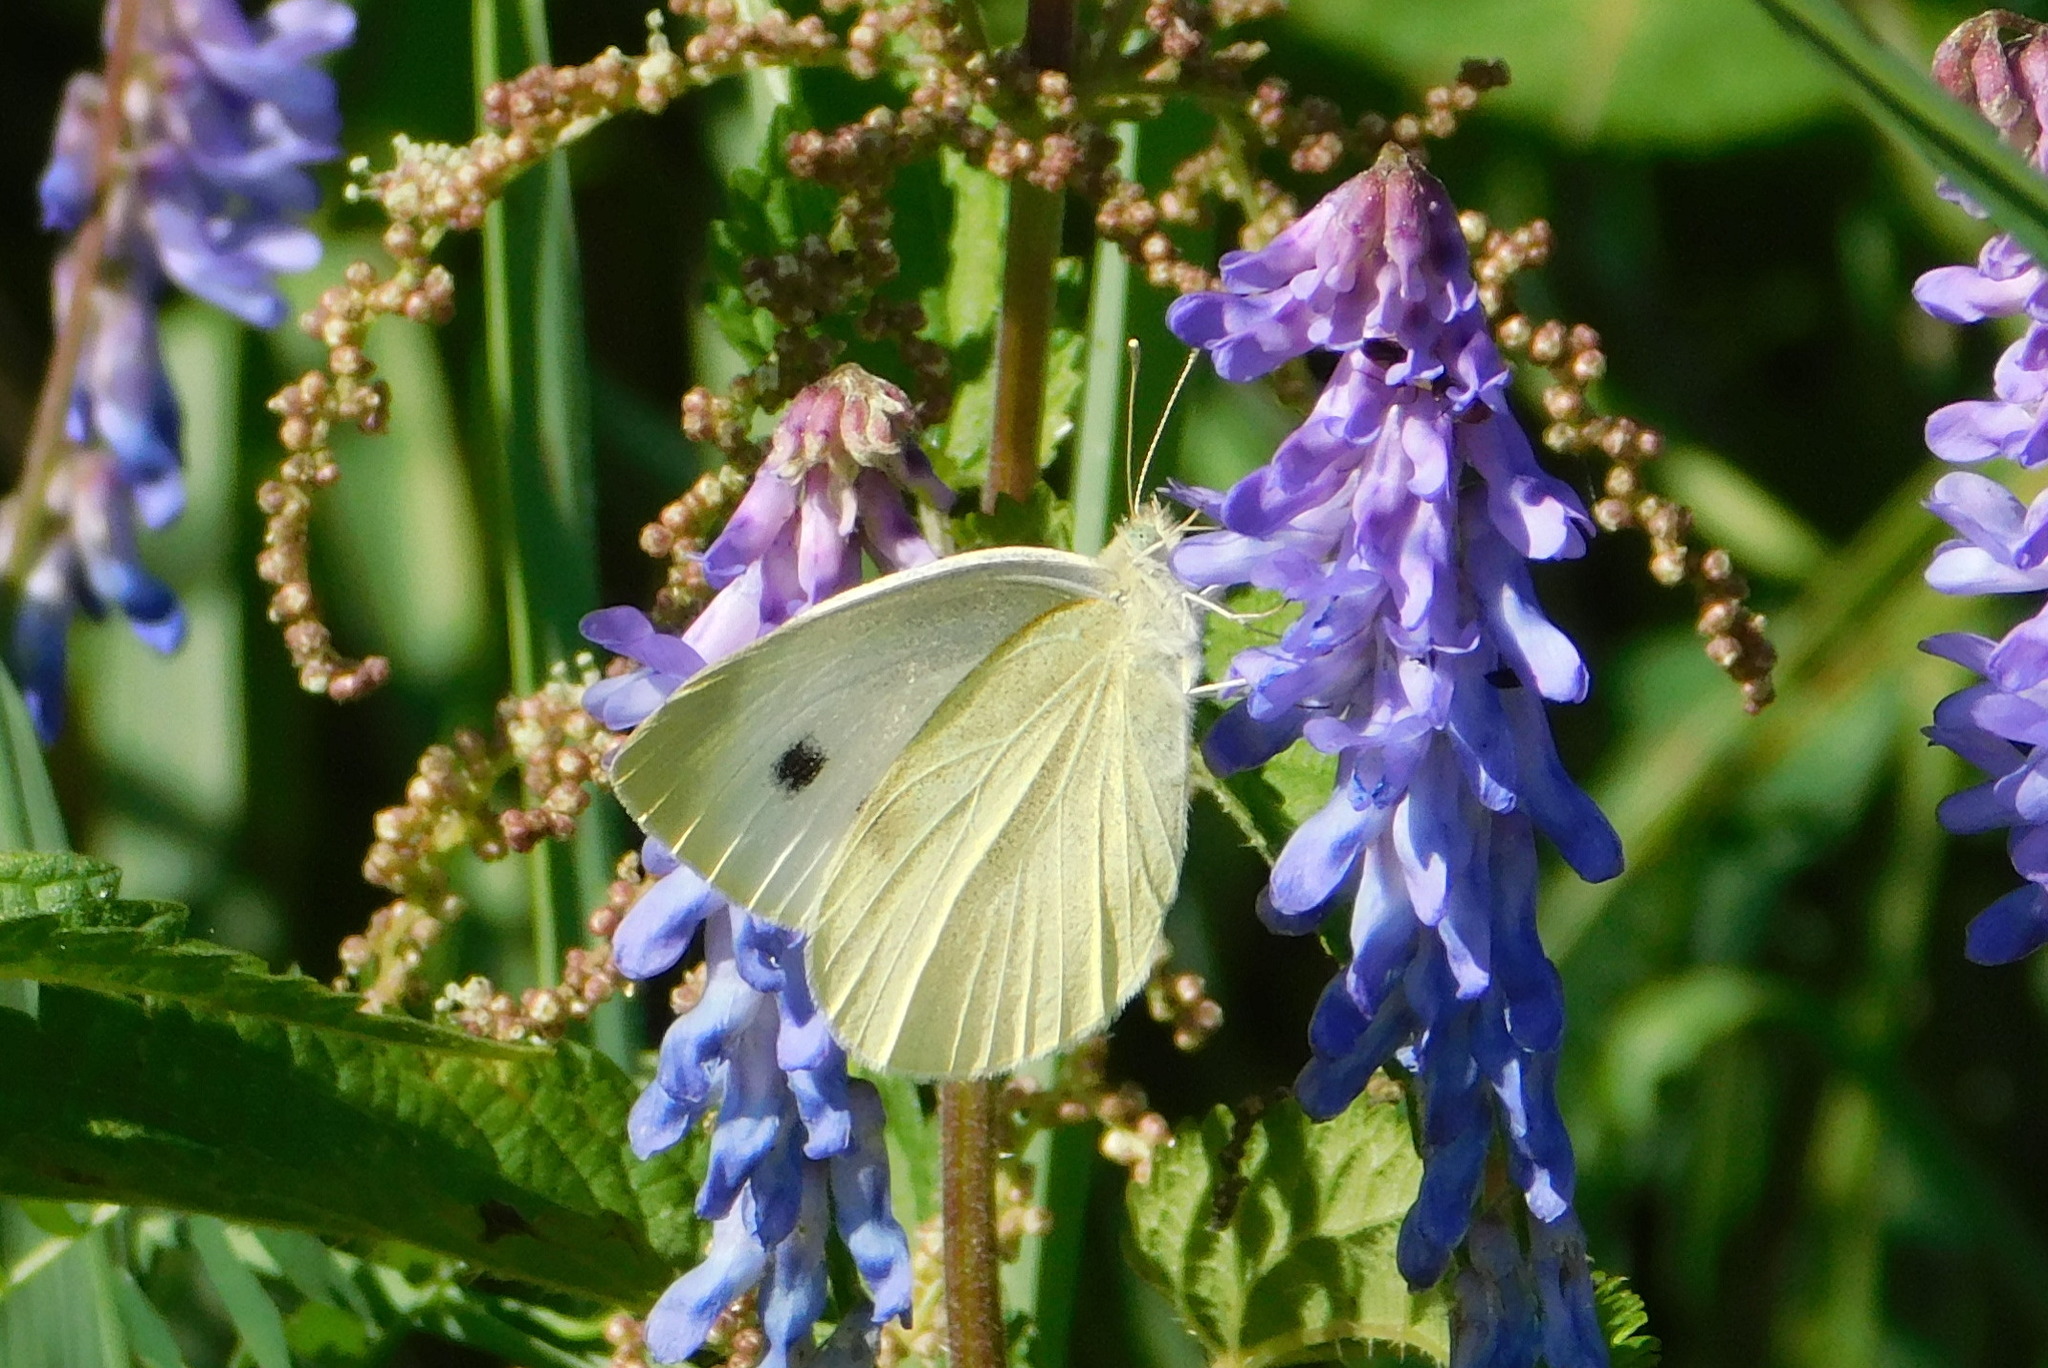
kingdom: Animalia
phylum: Arthropoda
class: Insecta
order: Lepidoptera
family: Pieridae
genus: Pieris
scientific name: Pieris rapae
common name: Small white
